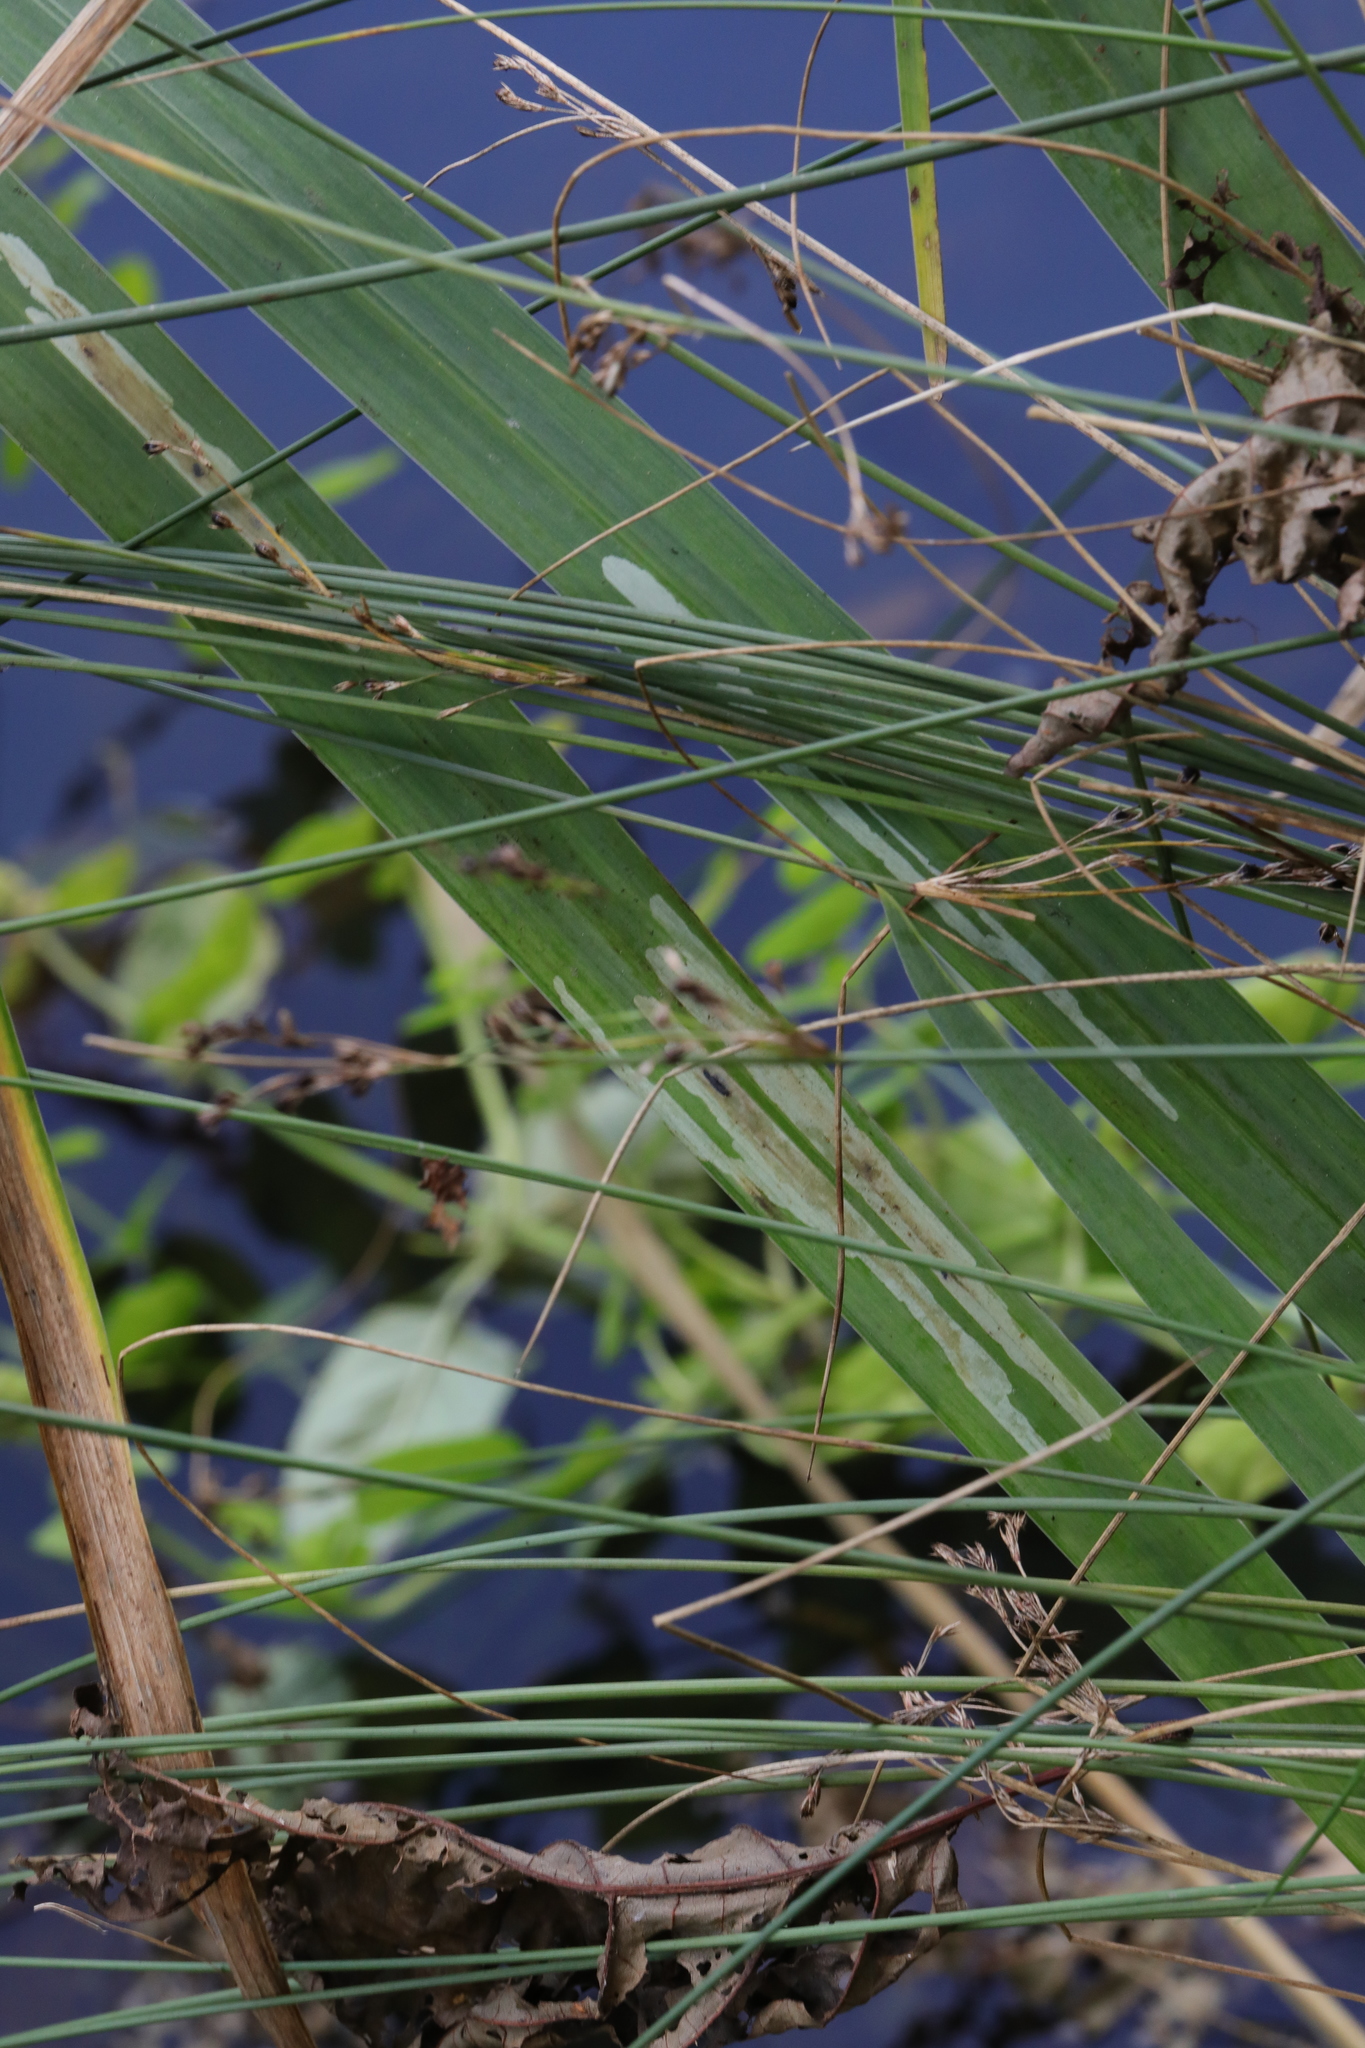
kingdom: Animalia
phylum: Arthropoda
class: Insecta
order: Diptera
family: Agromyzidae
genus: Cerodontha
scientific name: Cerodontha ircos
